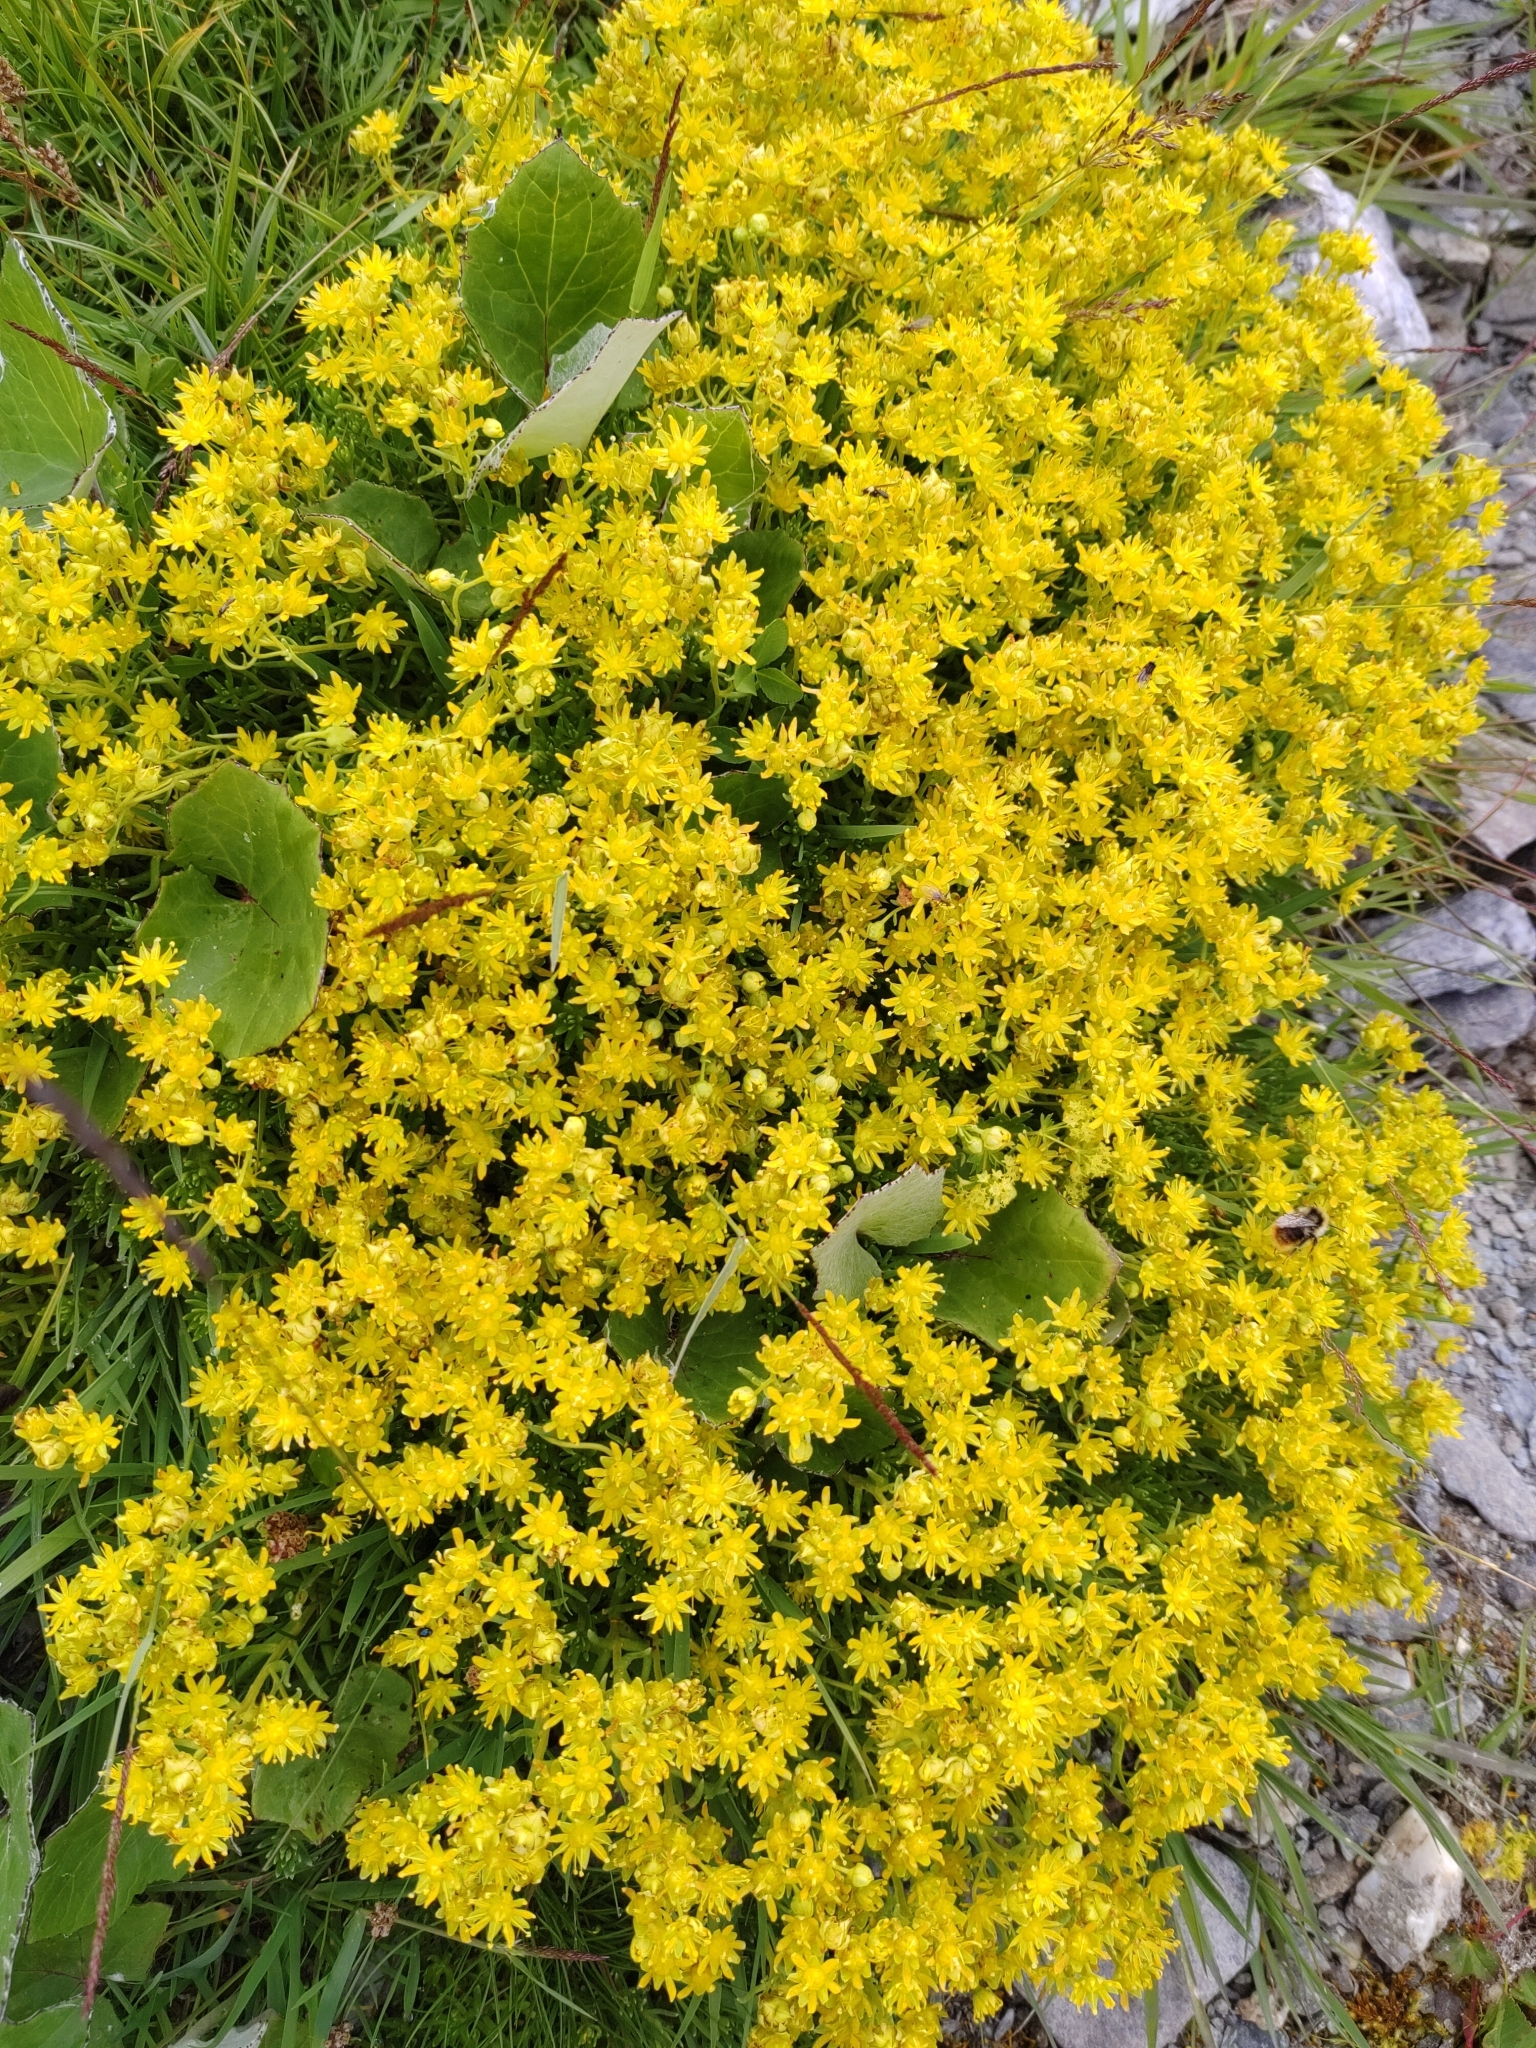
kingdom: Plantae
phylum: Tracheophyta
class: Magnoliopsida
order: Saxifragales
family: Saxifragaceae
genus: Saxifraga
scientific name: Saxifraga aizoides
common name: Yellow mountain saxifrage
